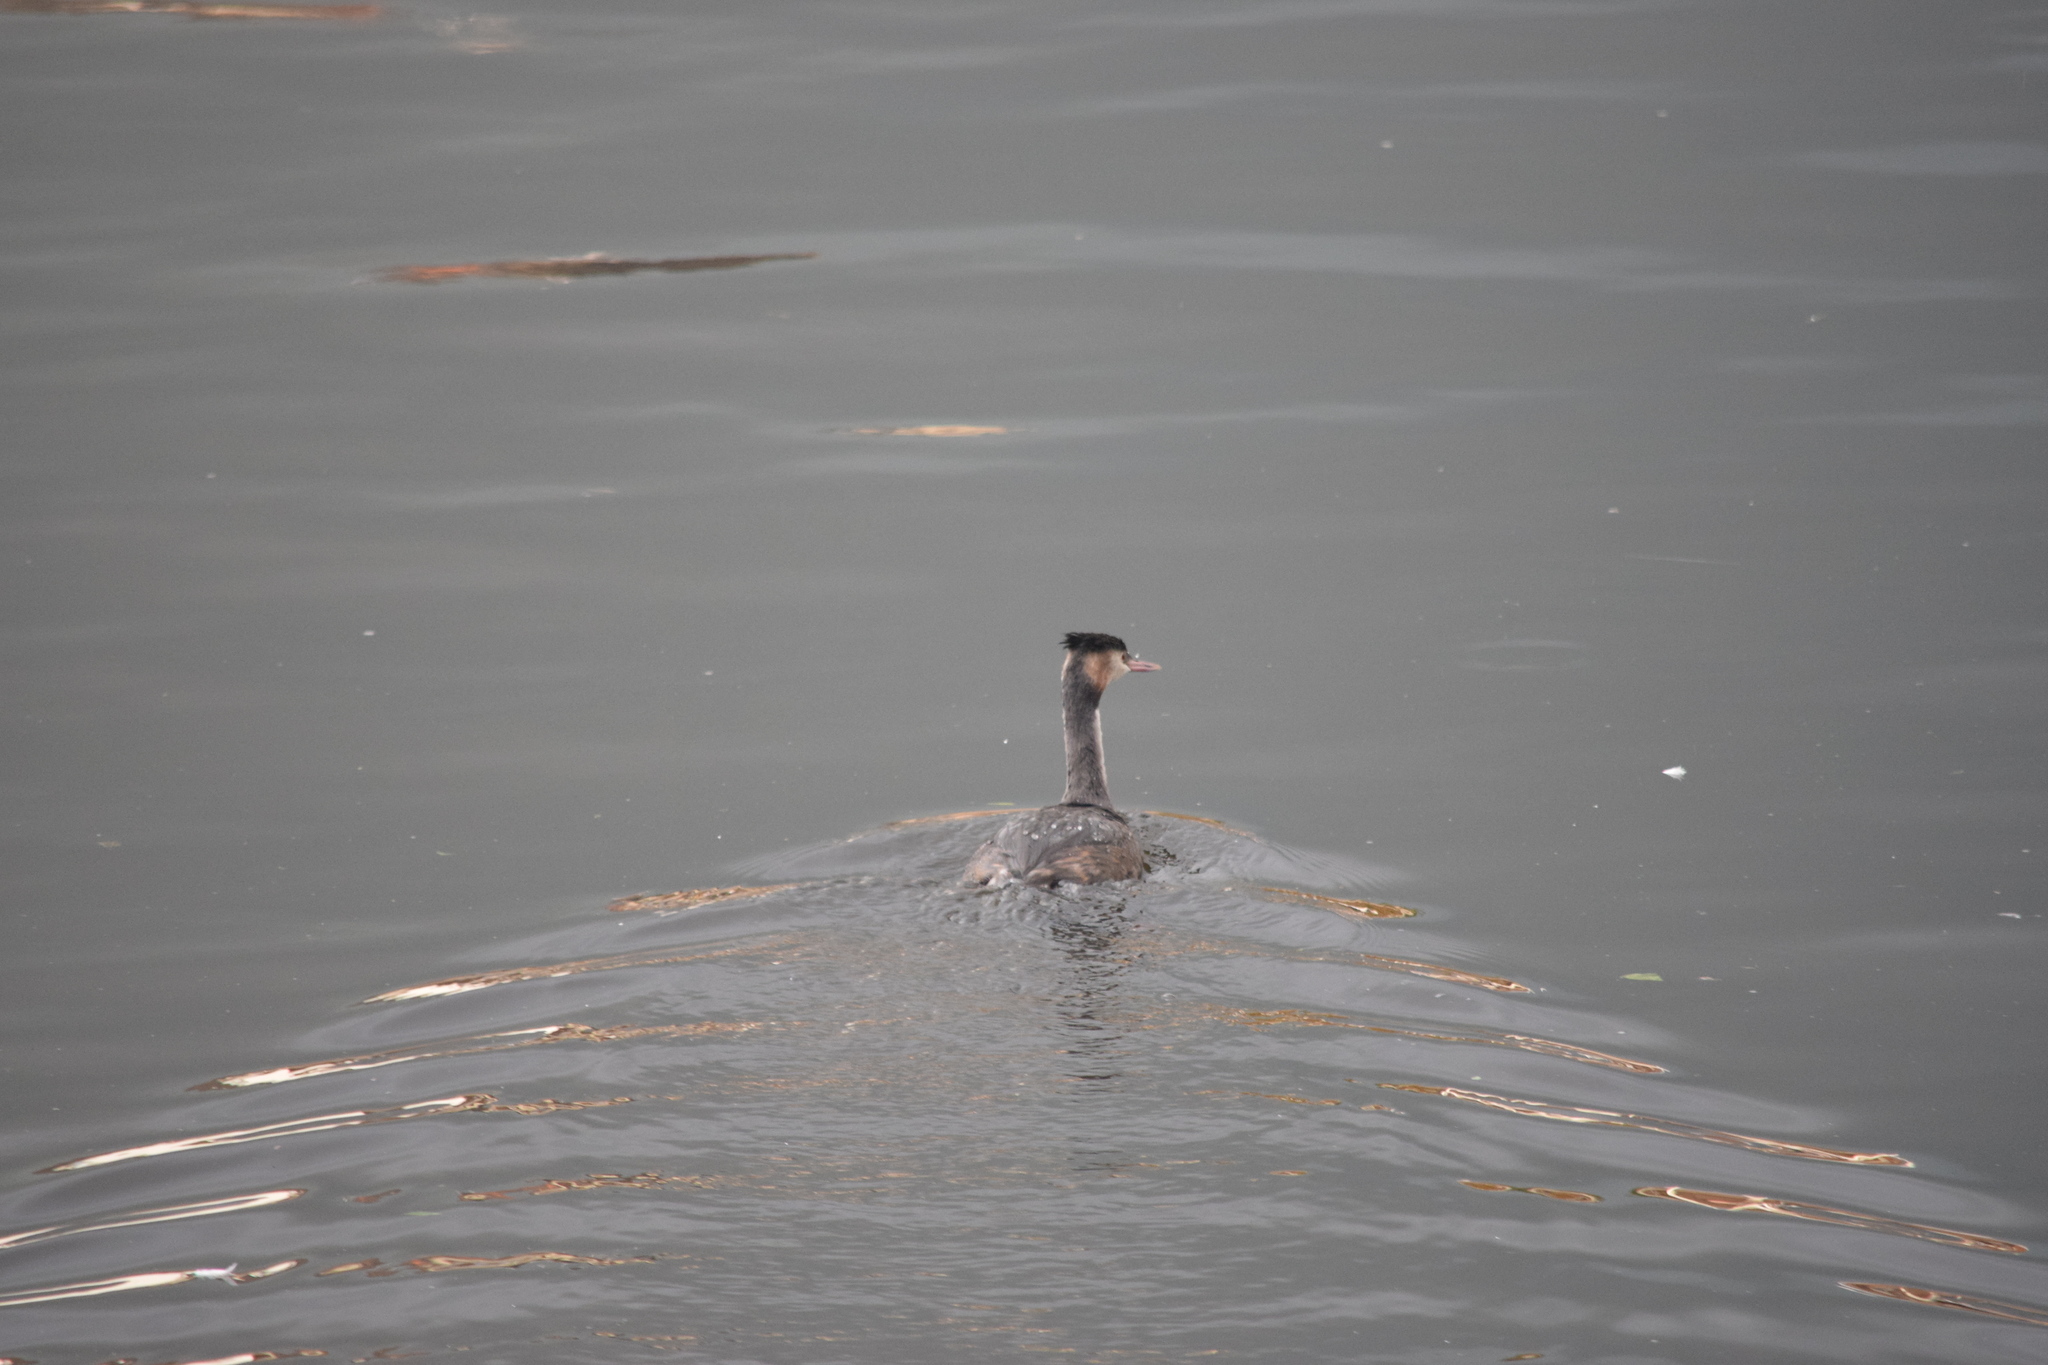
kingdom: Animalia
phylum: Chordata
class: Aves
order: Podicipediformes
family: Podicipedidae
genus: Podiceps
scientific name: Podiceps cristatus
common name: Great crested grebe
